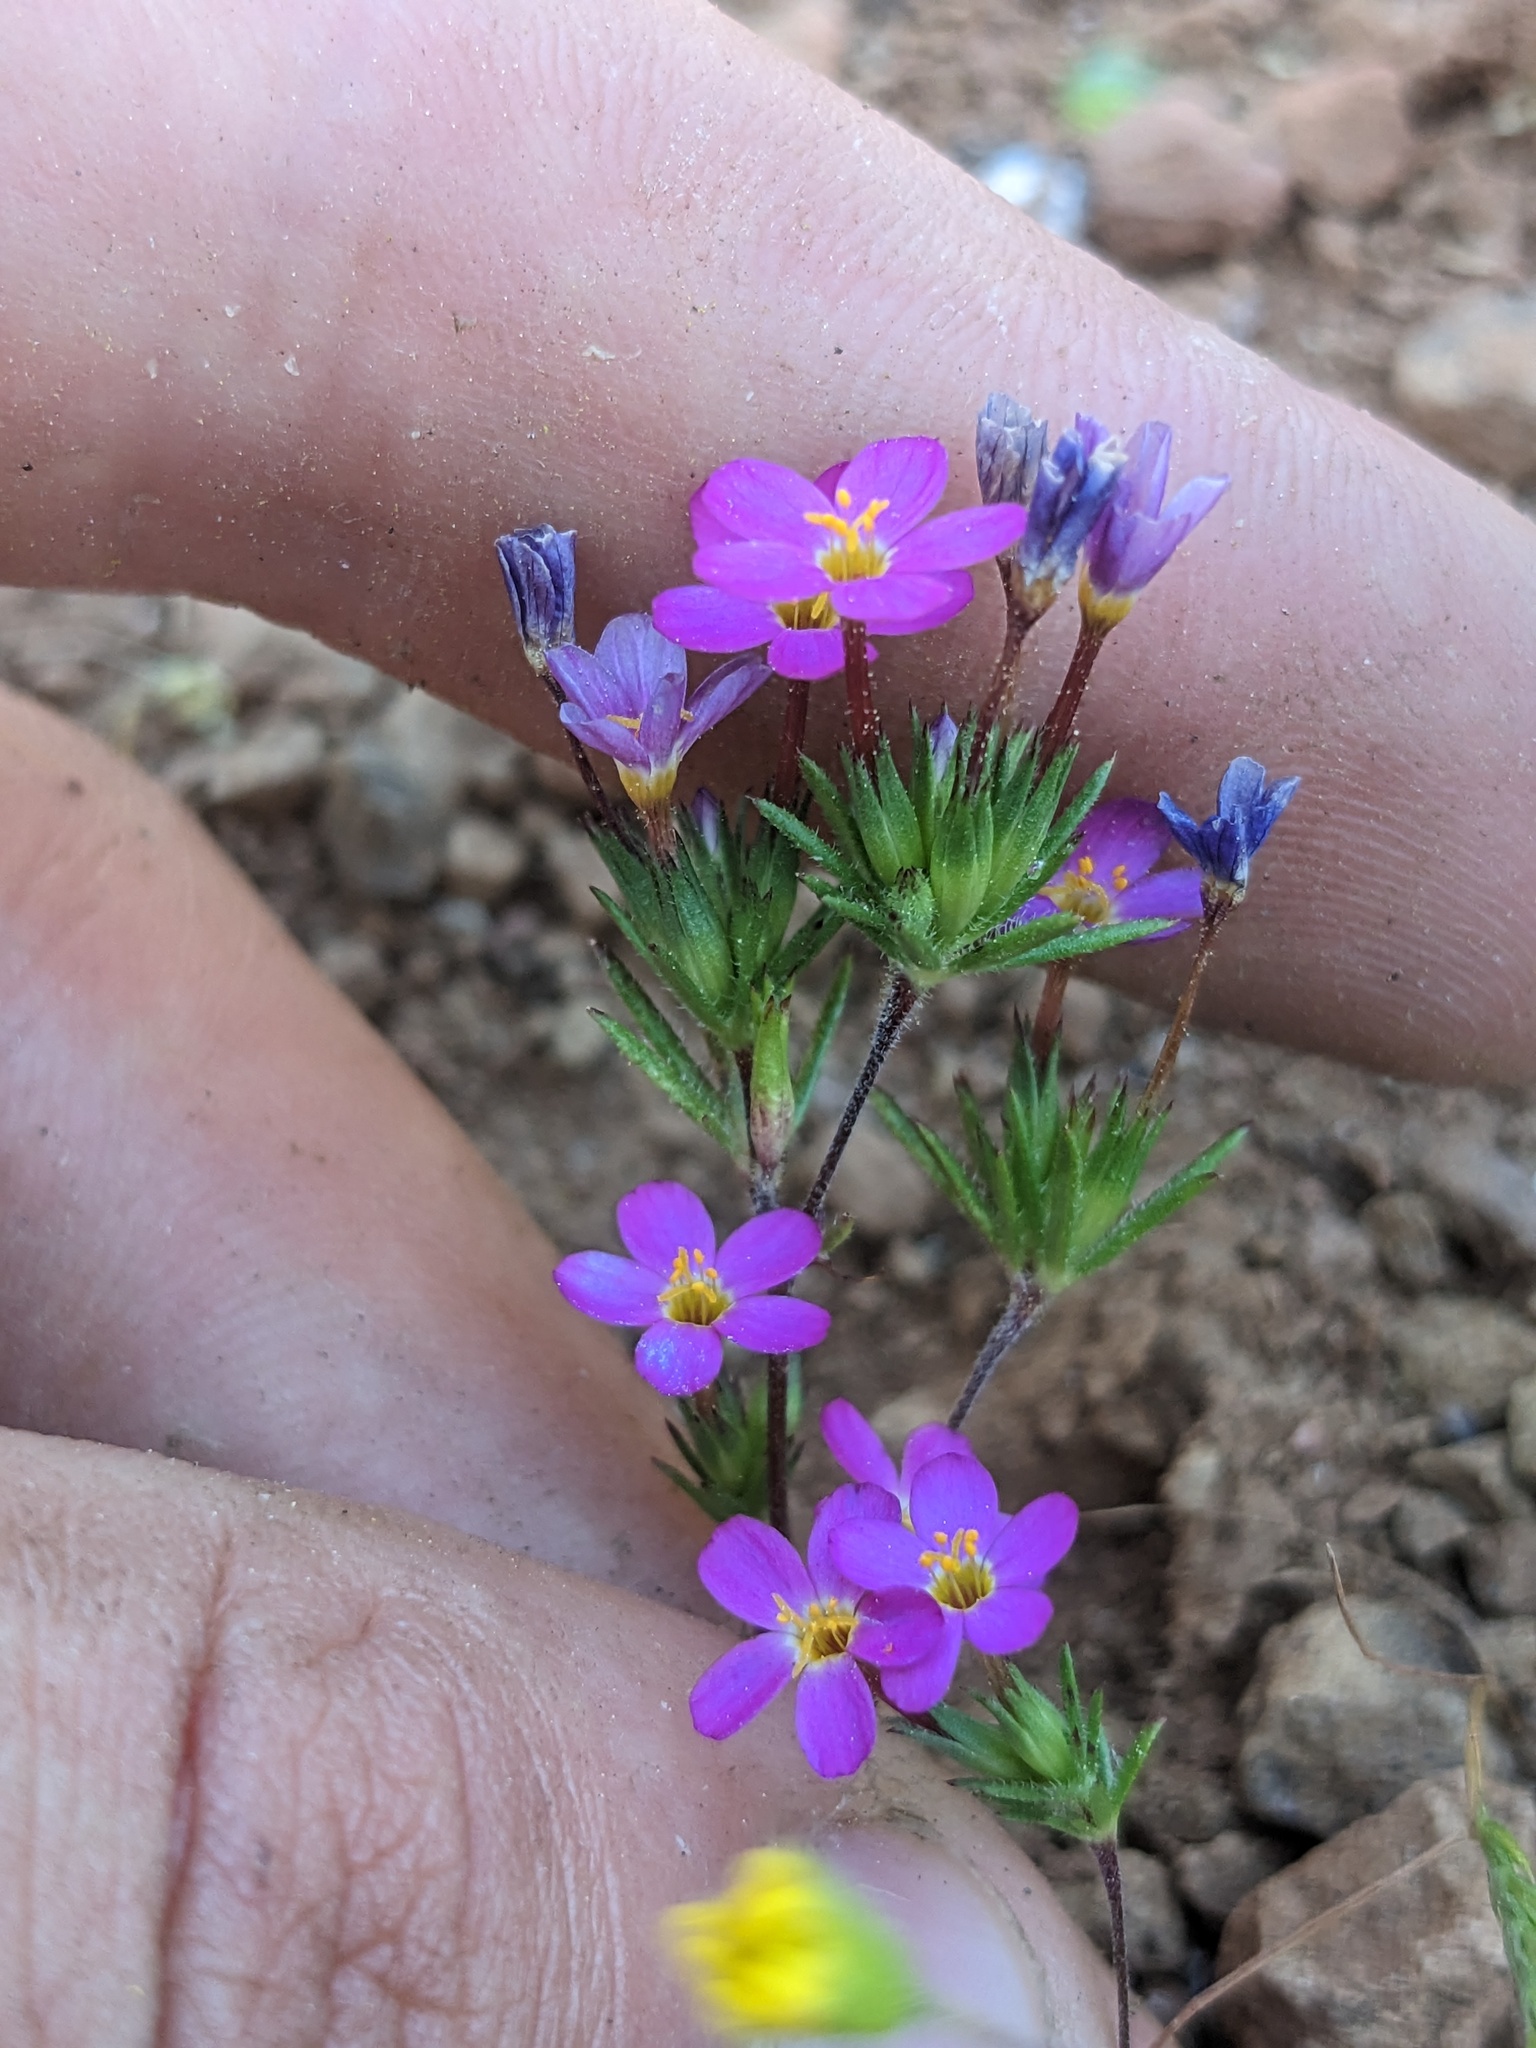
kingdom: Plantae
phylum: Tracheophyta
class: Magnoliopsida
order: Ericales
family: Polemoniaceae
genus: Leptosiphon
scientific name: Leptosiphon bicolor
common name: True babystars
